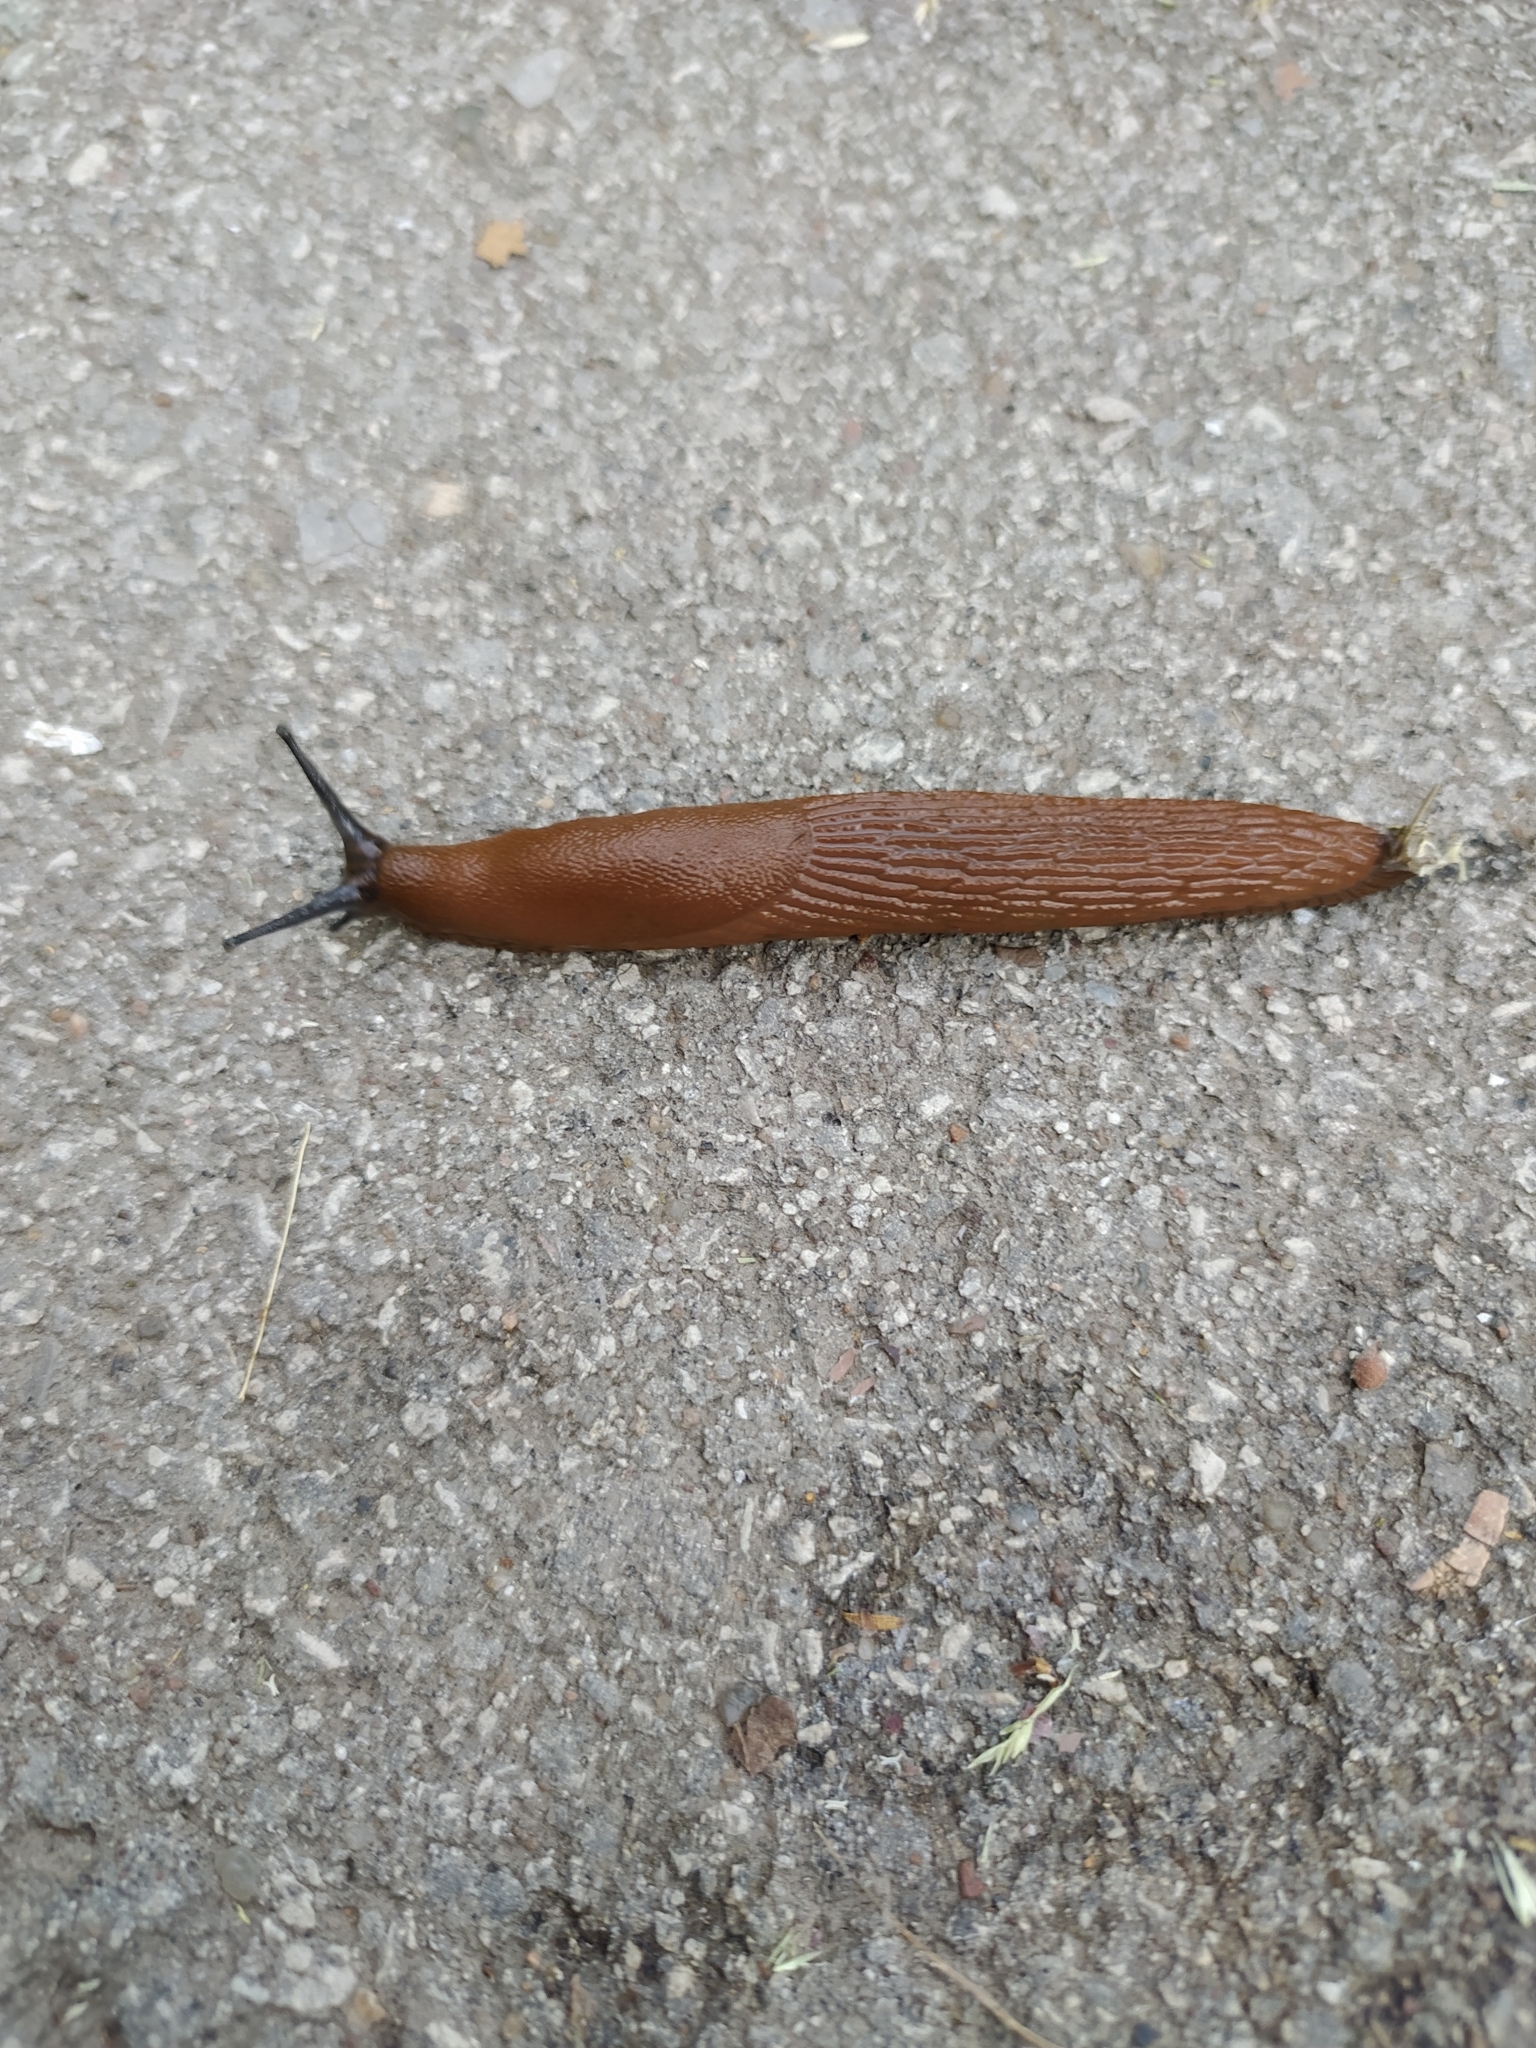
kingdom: Animalia
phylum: Mollusca
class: Gastropoda
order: Stylommatophora
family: Arionidae
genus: Arion
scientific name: Arion
